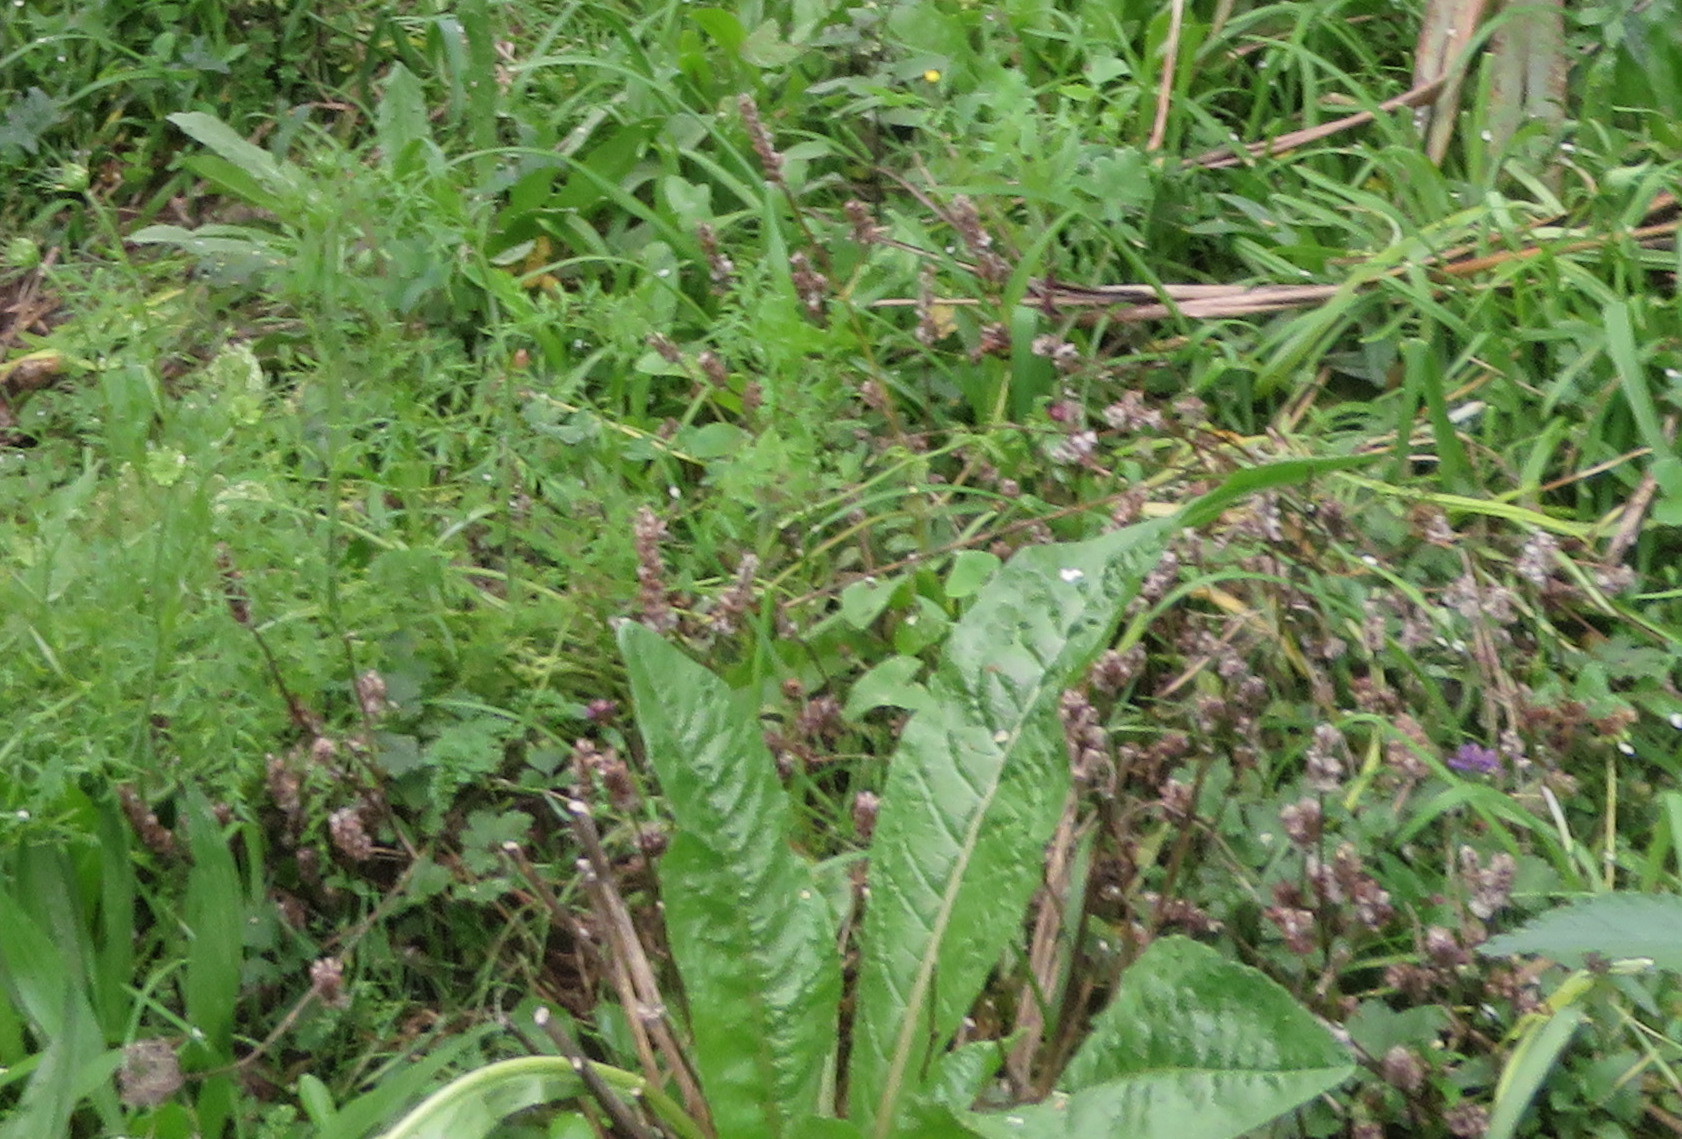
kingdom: Plantae
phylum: Tracheophyta
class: Magnoliopsida
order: Lamiales
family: Lamiaceae
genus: Prunella
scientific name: Prunella vulgaris
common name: Heal-all
